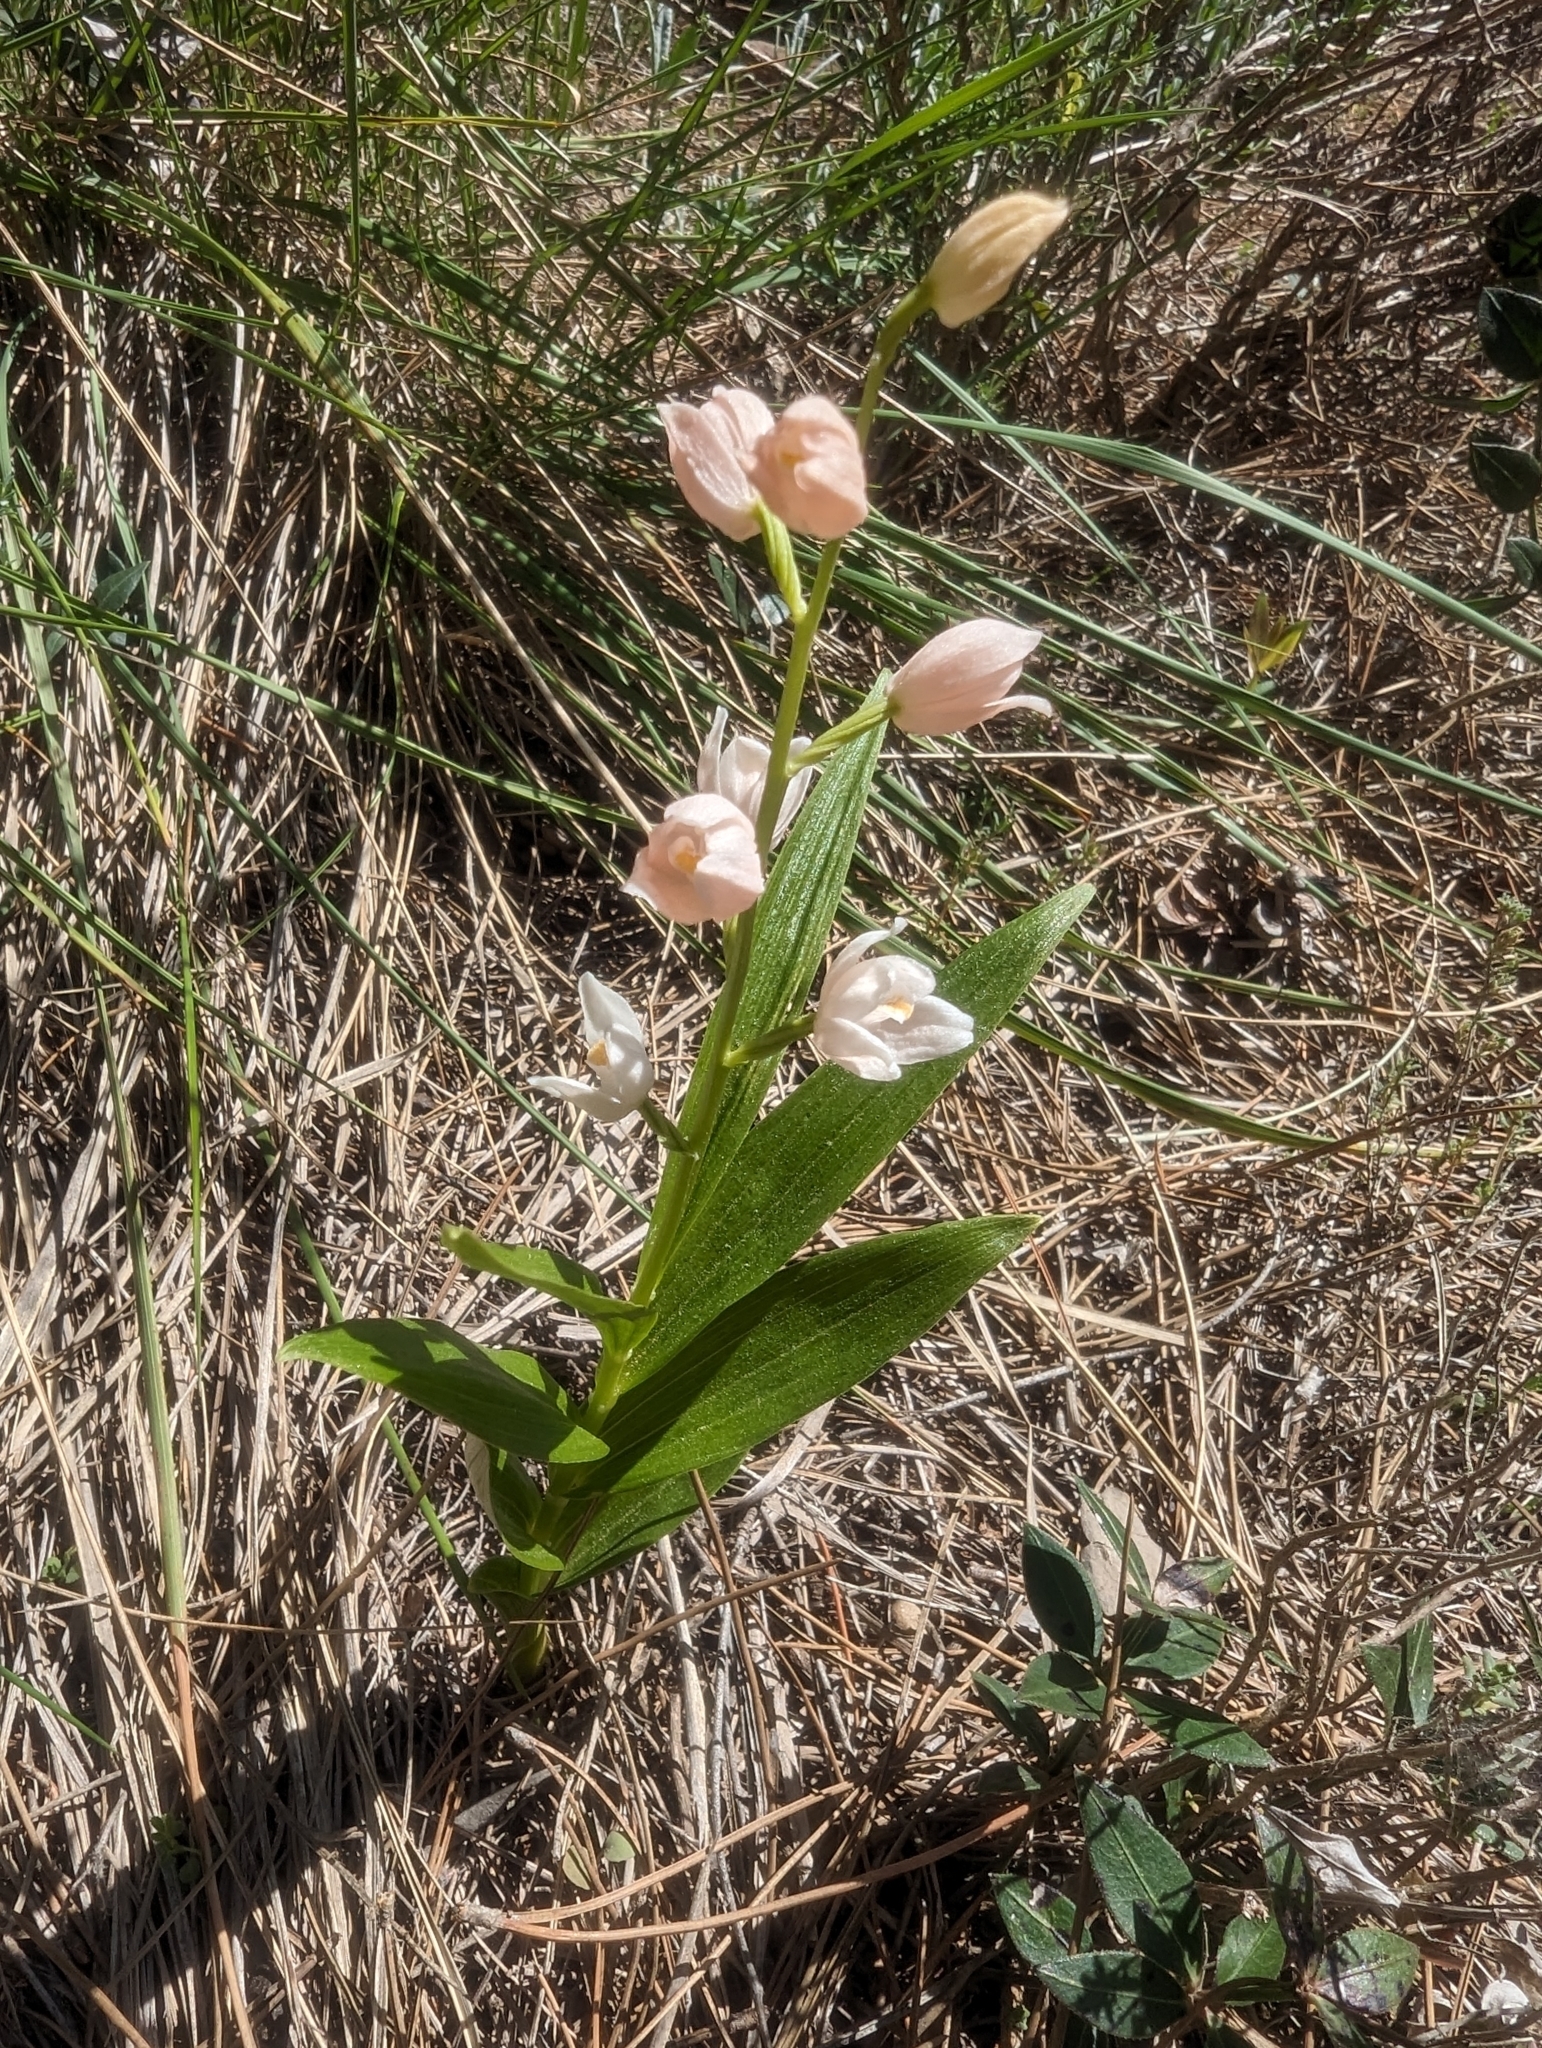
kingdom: Plantae
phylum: Tracheophyta
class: Liliopsida
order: Asparagales
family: Orchidaceae
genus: Cephalanthera
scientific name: Cephalanthera longifolia
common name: Narrow-leaved helleborine
